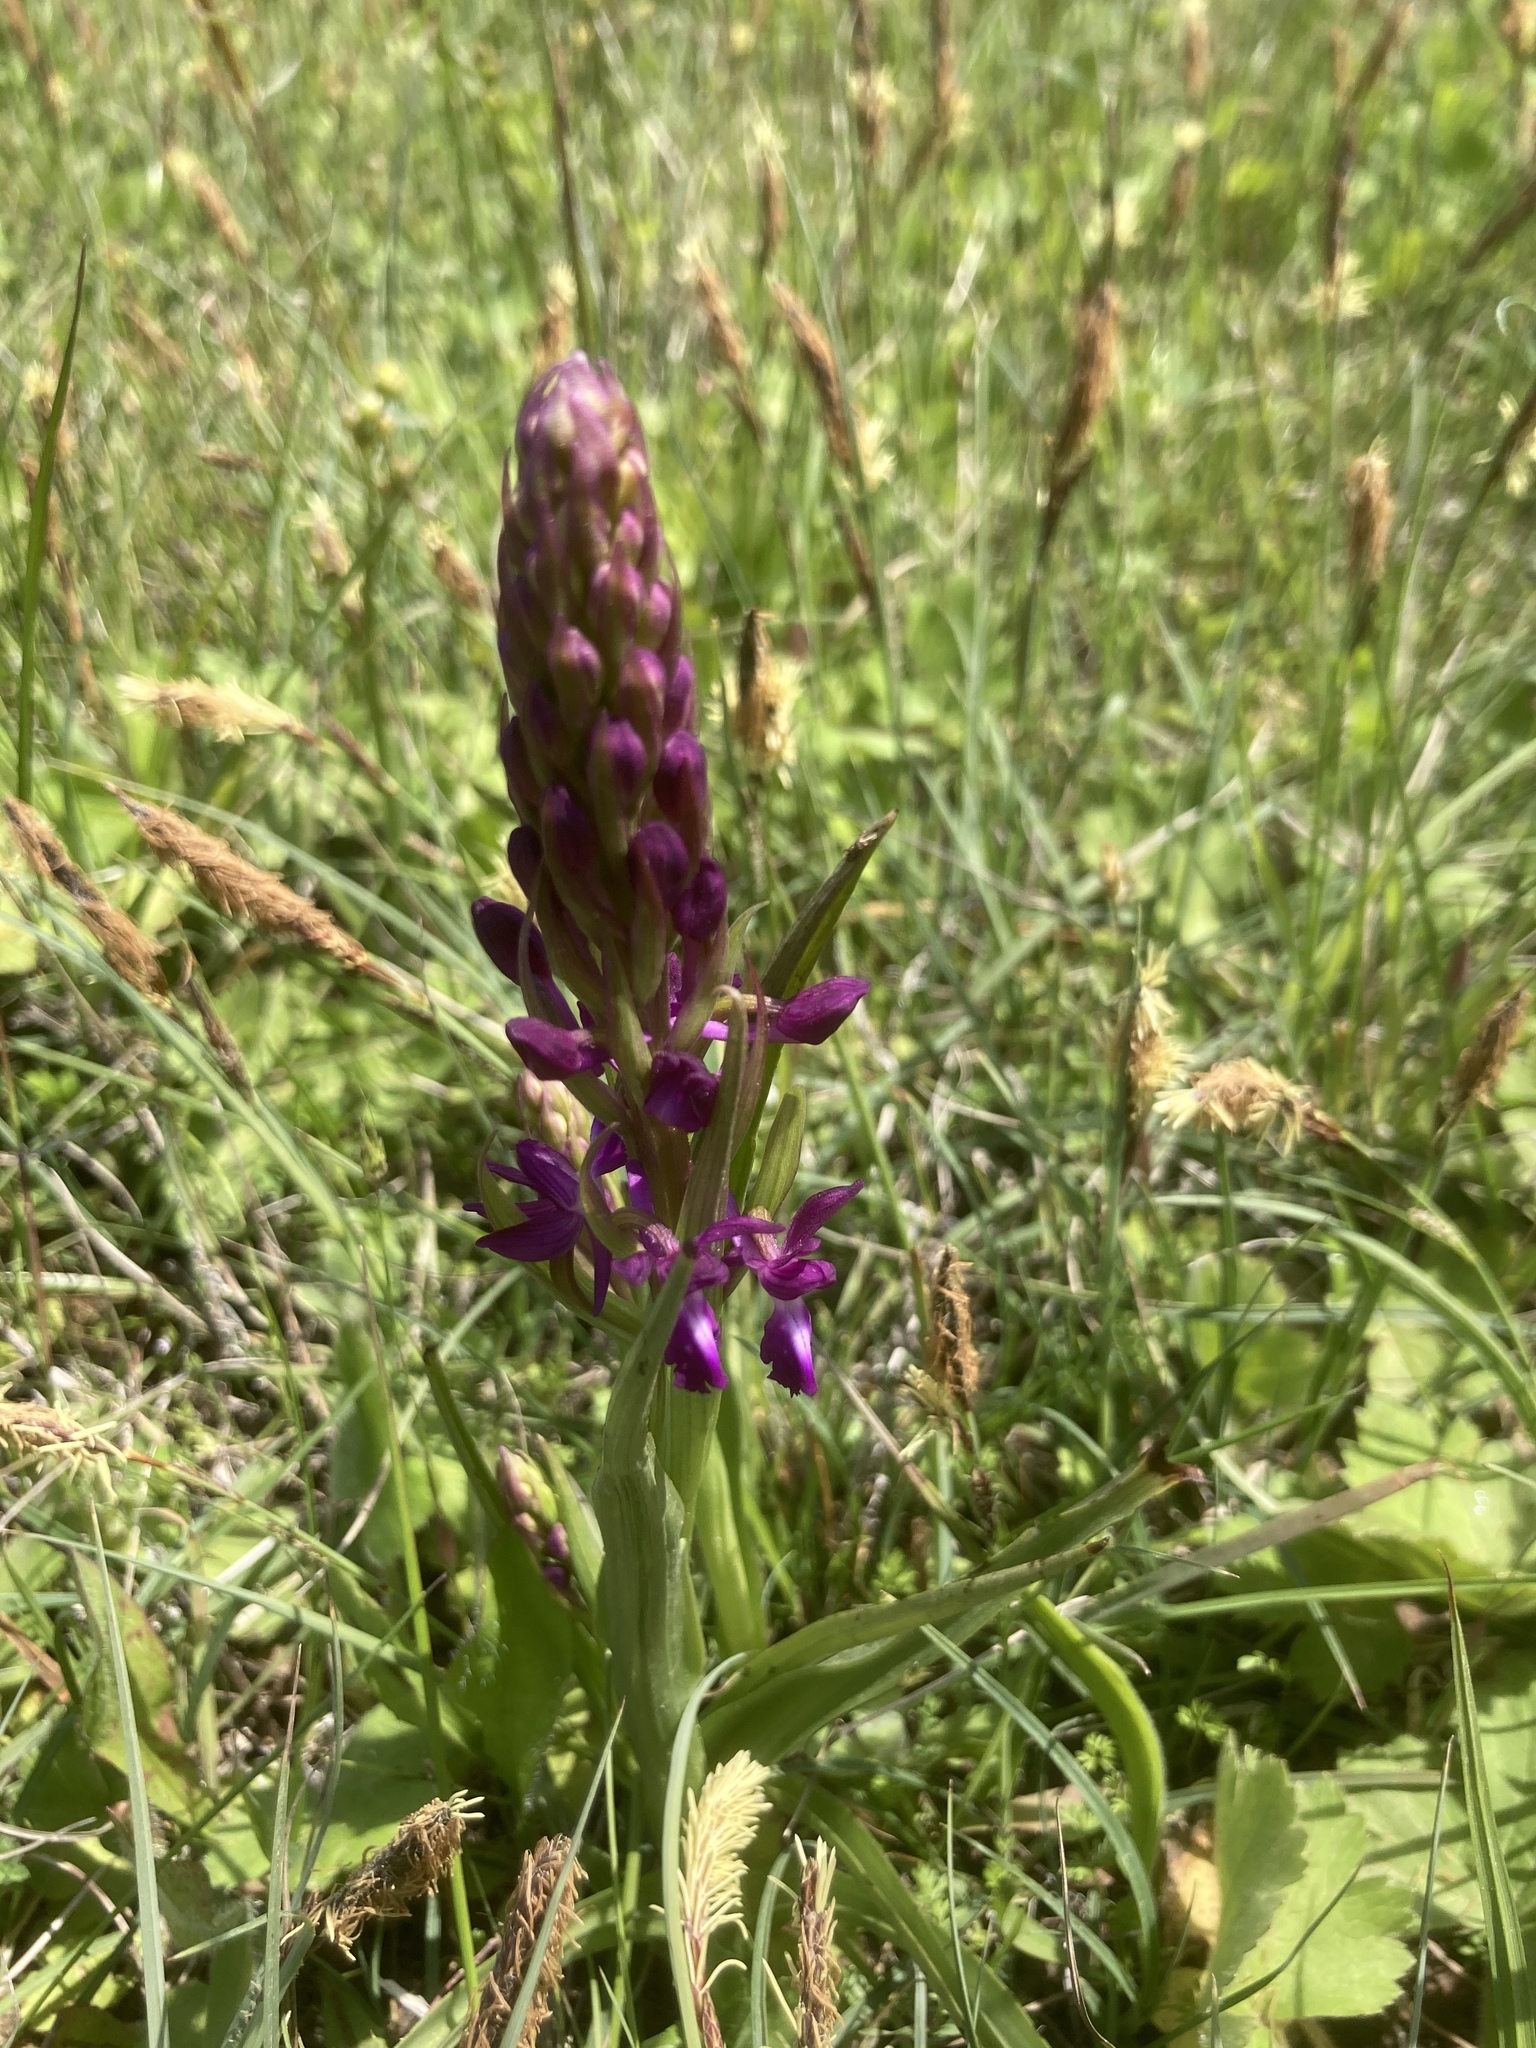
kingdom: Plantae
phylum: Tracheophyta
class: Liliopsida
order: Asparagales
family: Orchidaceae
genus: Anacamptis
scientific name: Anacamptis laxiflora
